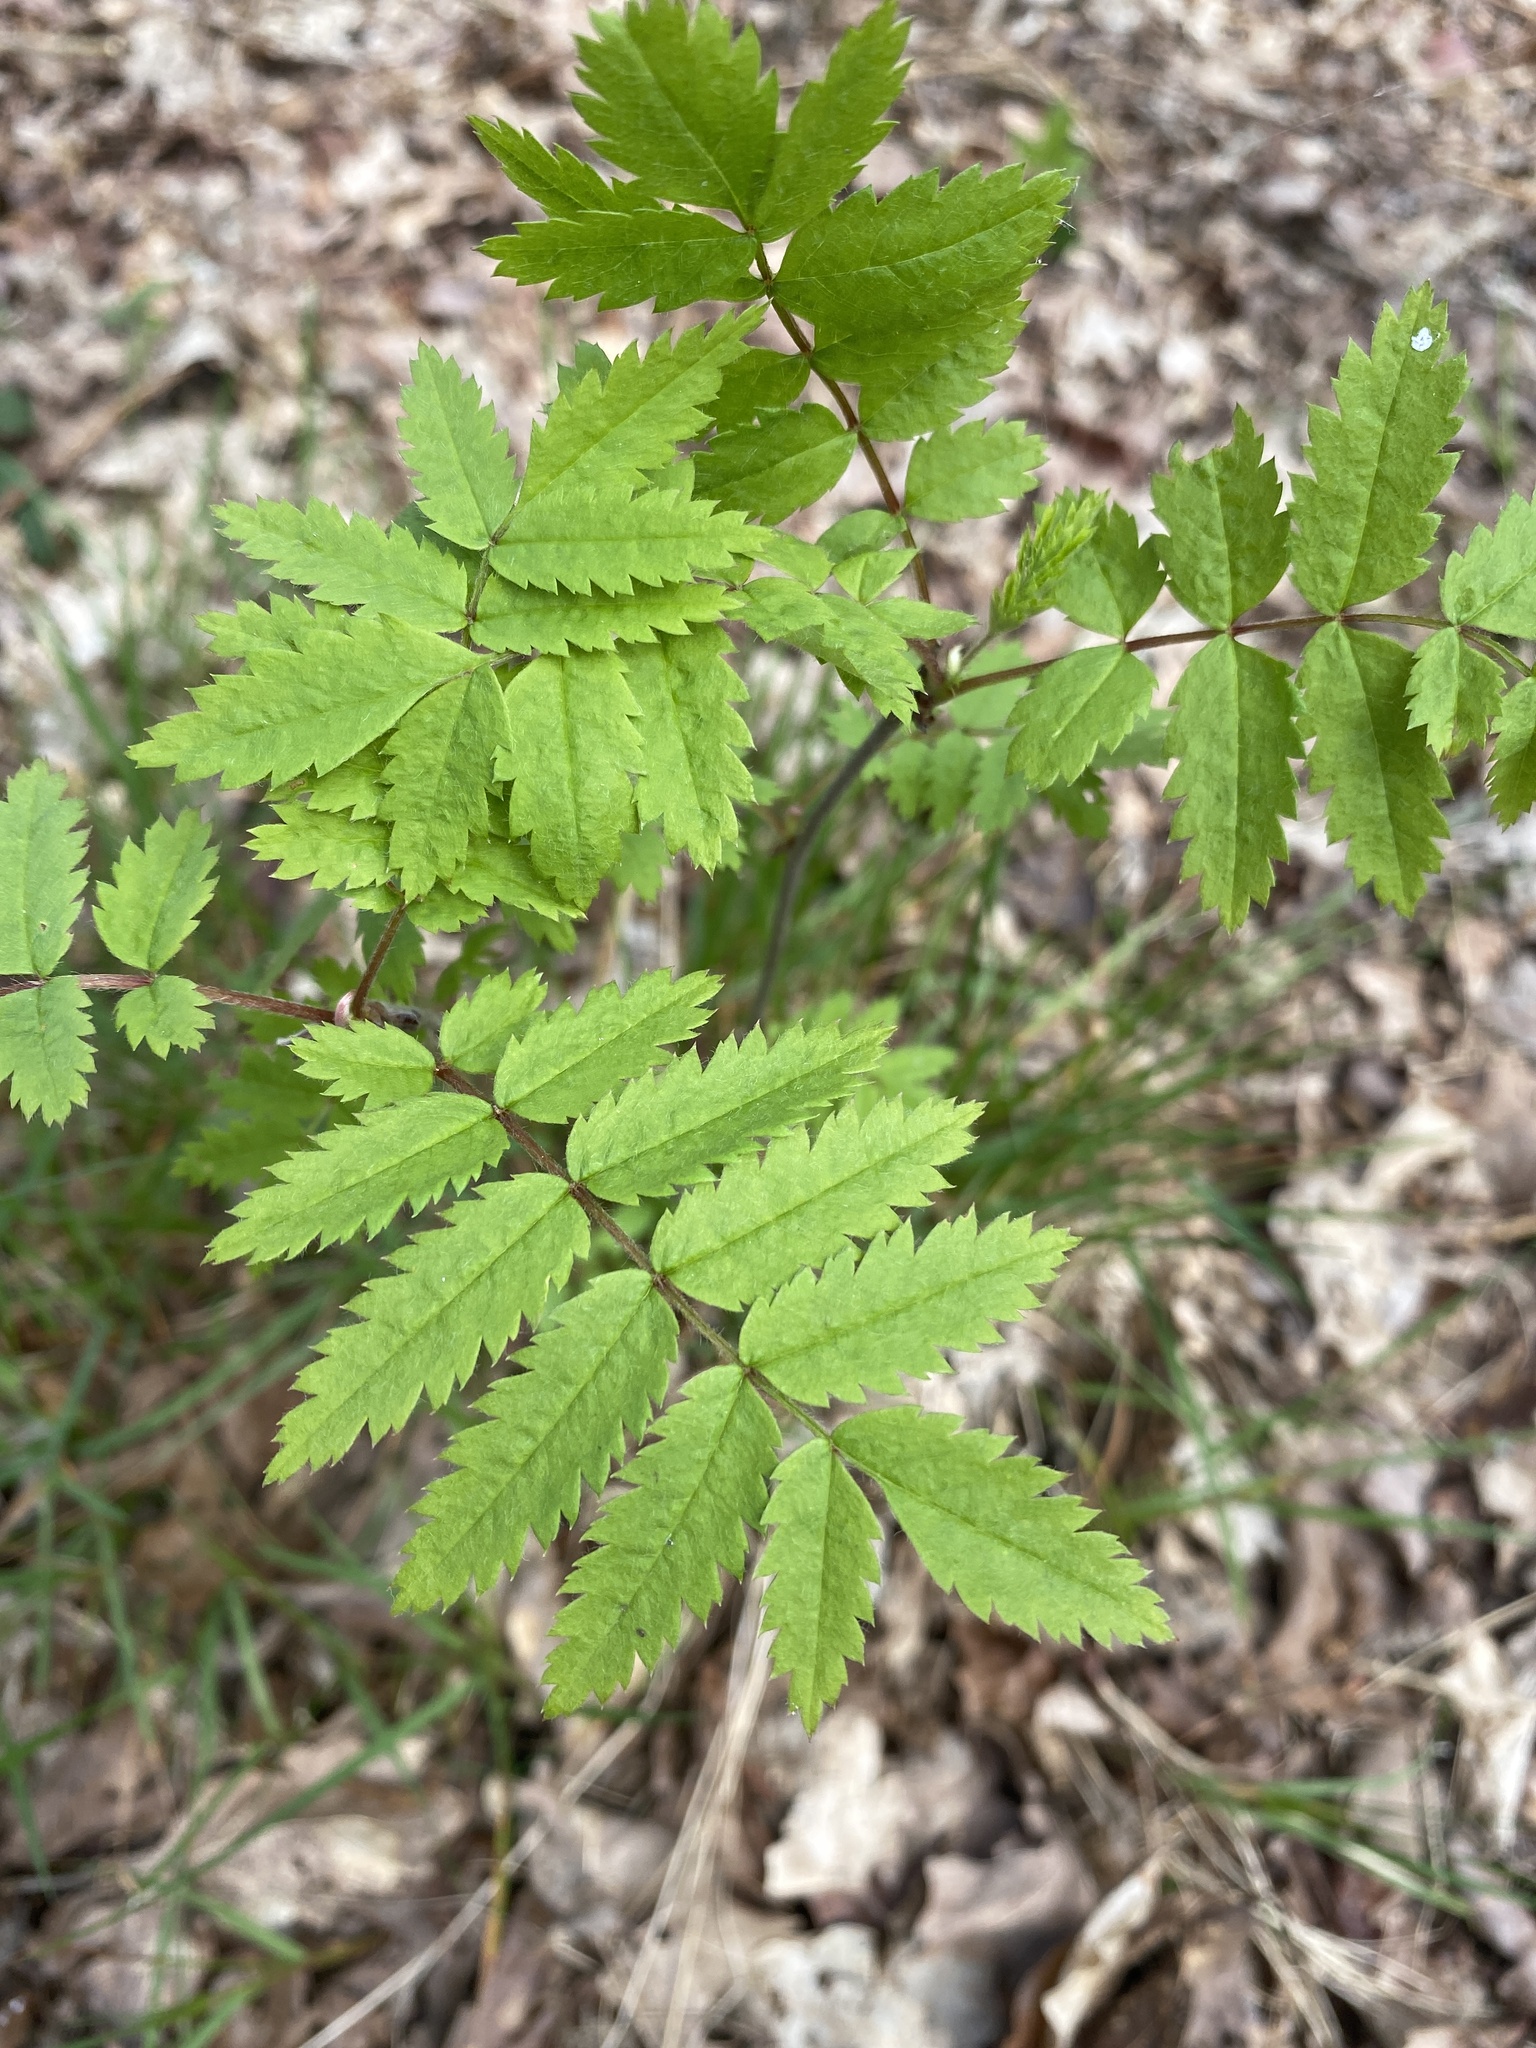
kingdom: Plantae
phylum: Tracheophyta
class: Magnoliopsida
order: Rosales
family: Rosaceae
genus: Sorbus
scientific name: Sorbus aucuparia
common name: Rowan
